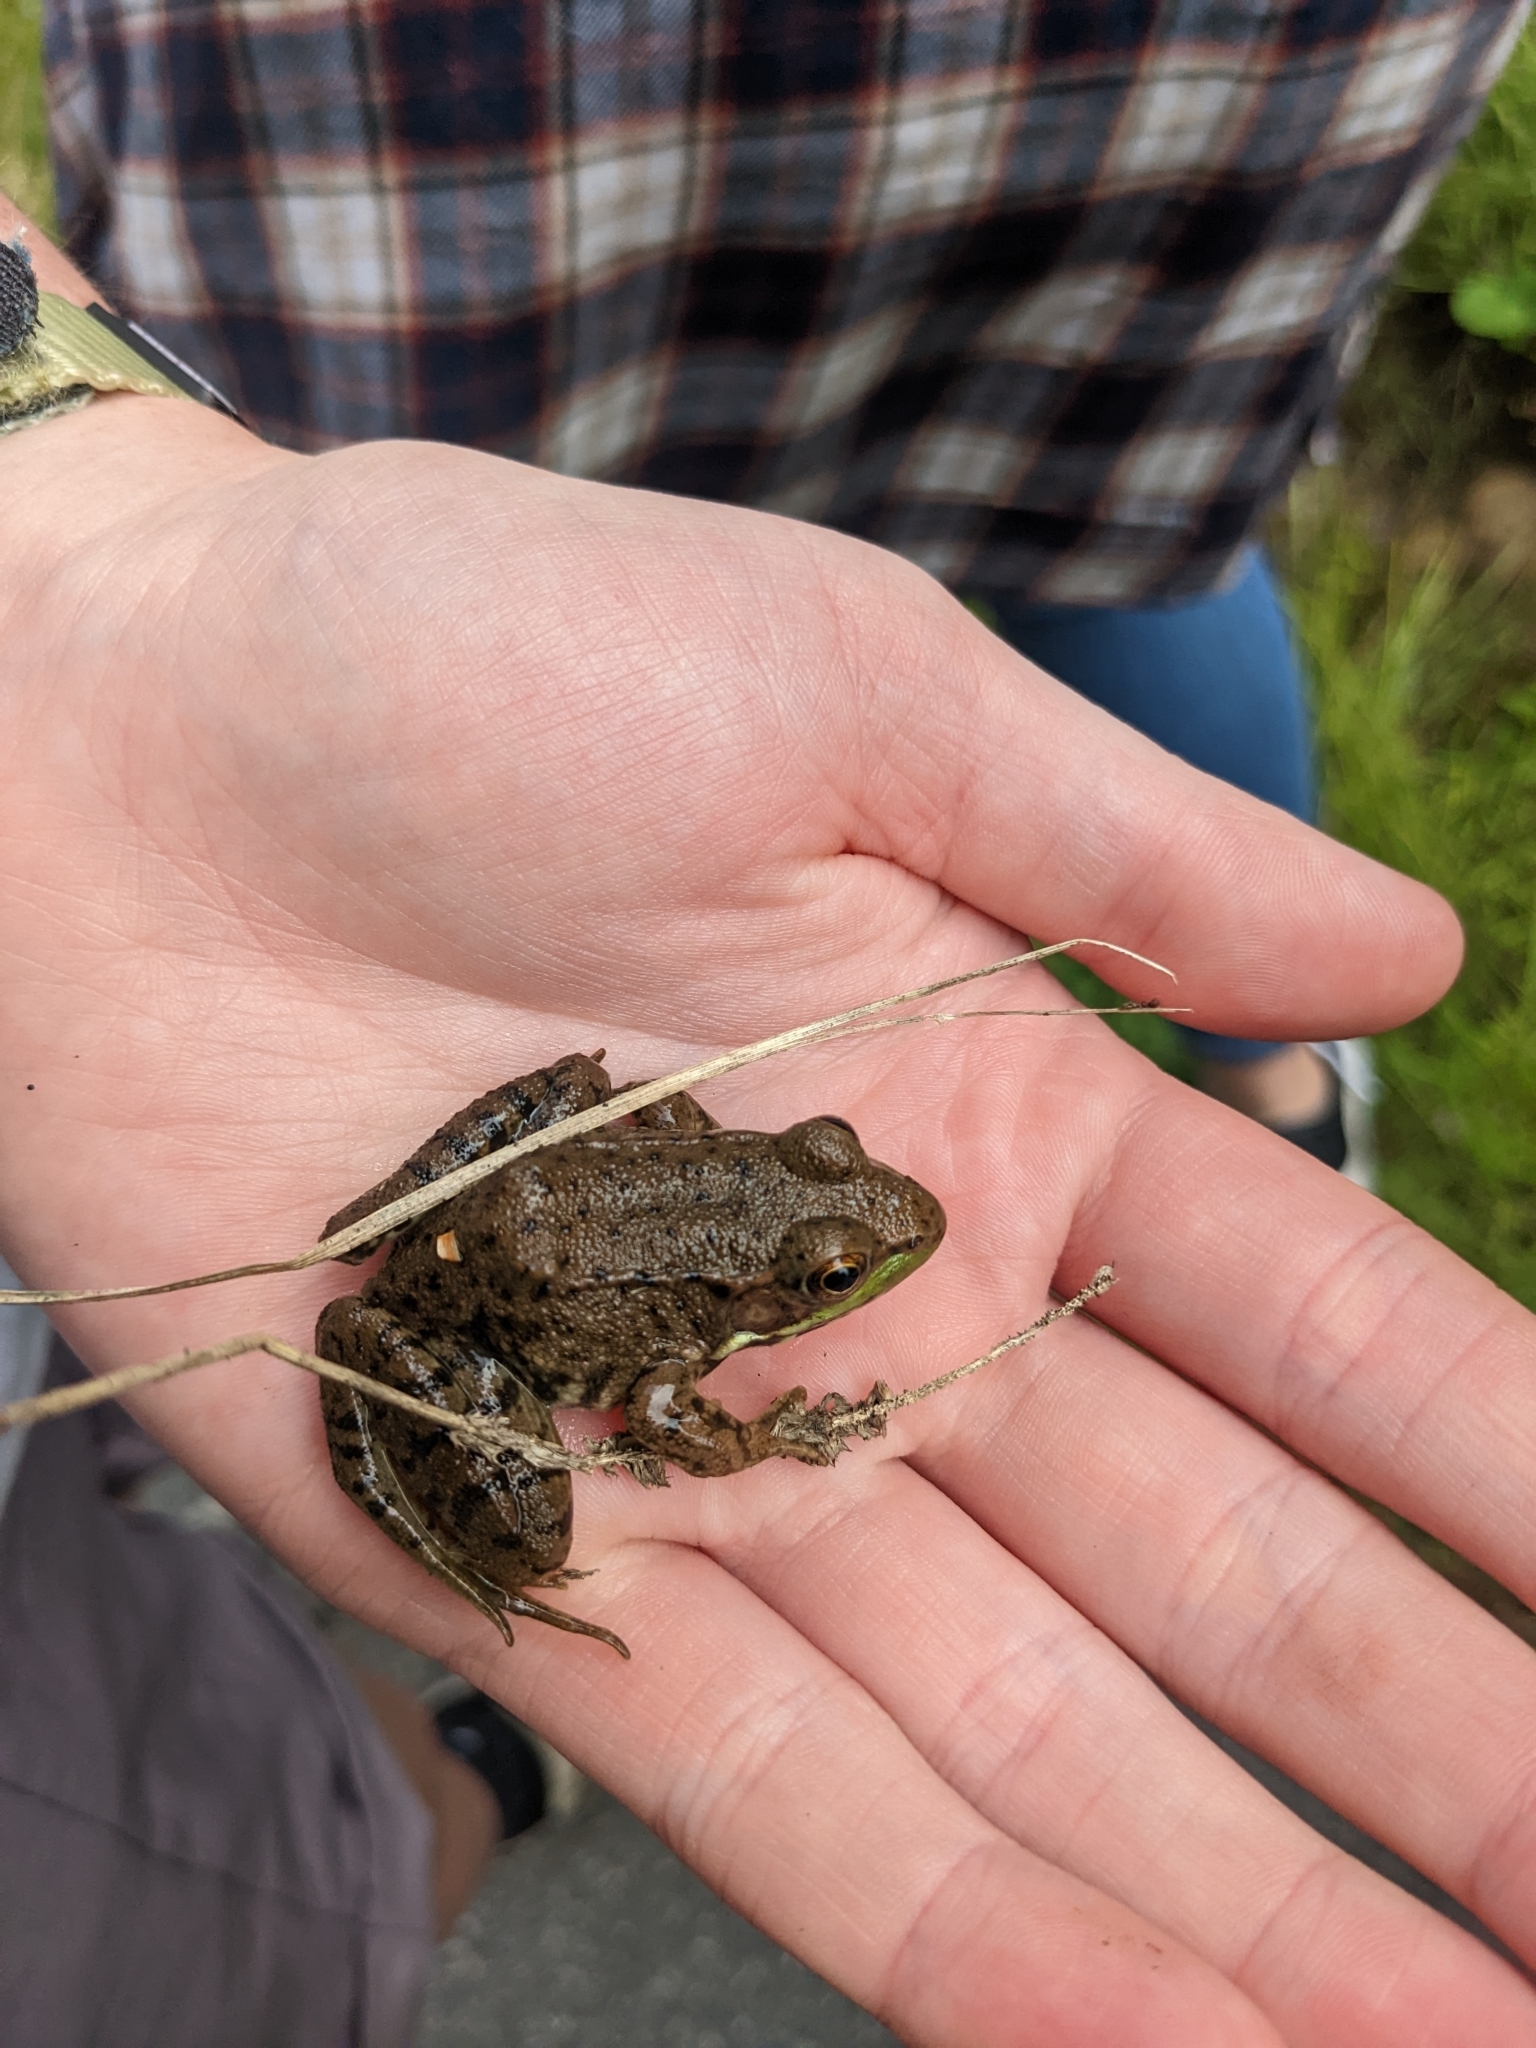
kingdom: Animalia
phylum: Chordata
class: Amphibia
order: Anura
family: Ranidae
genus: Lithobates
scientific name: Lithobates clamitans
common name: Green frog
